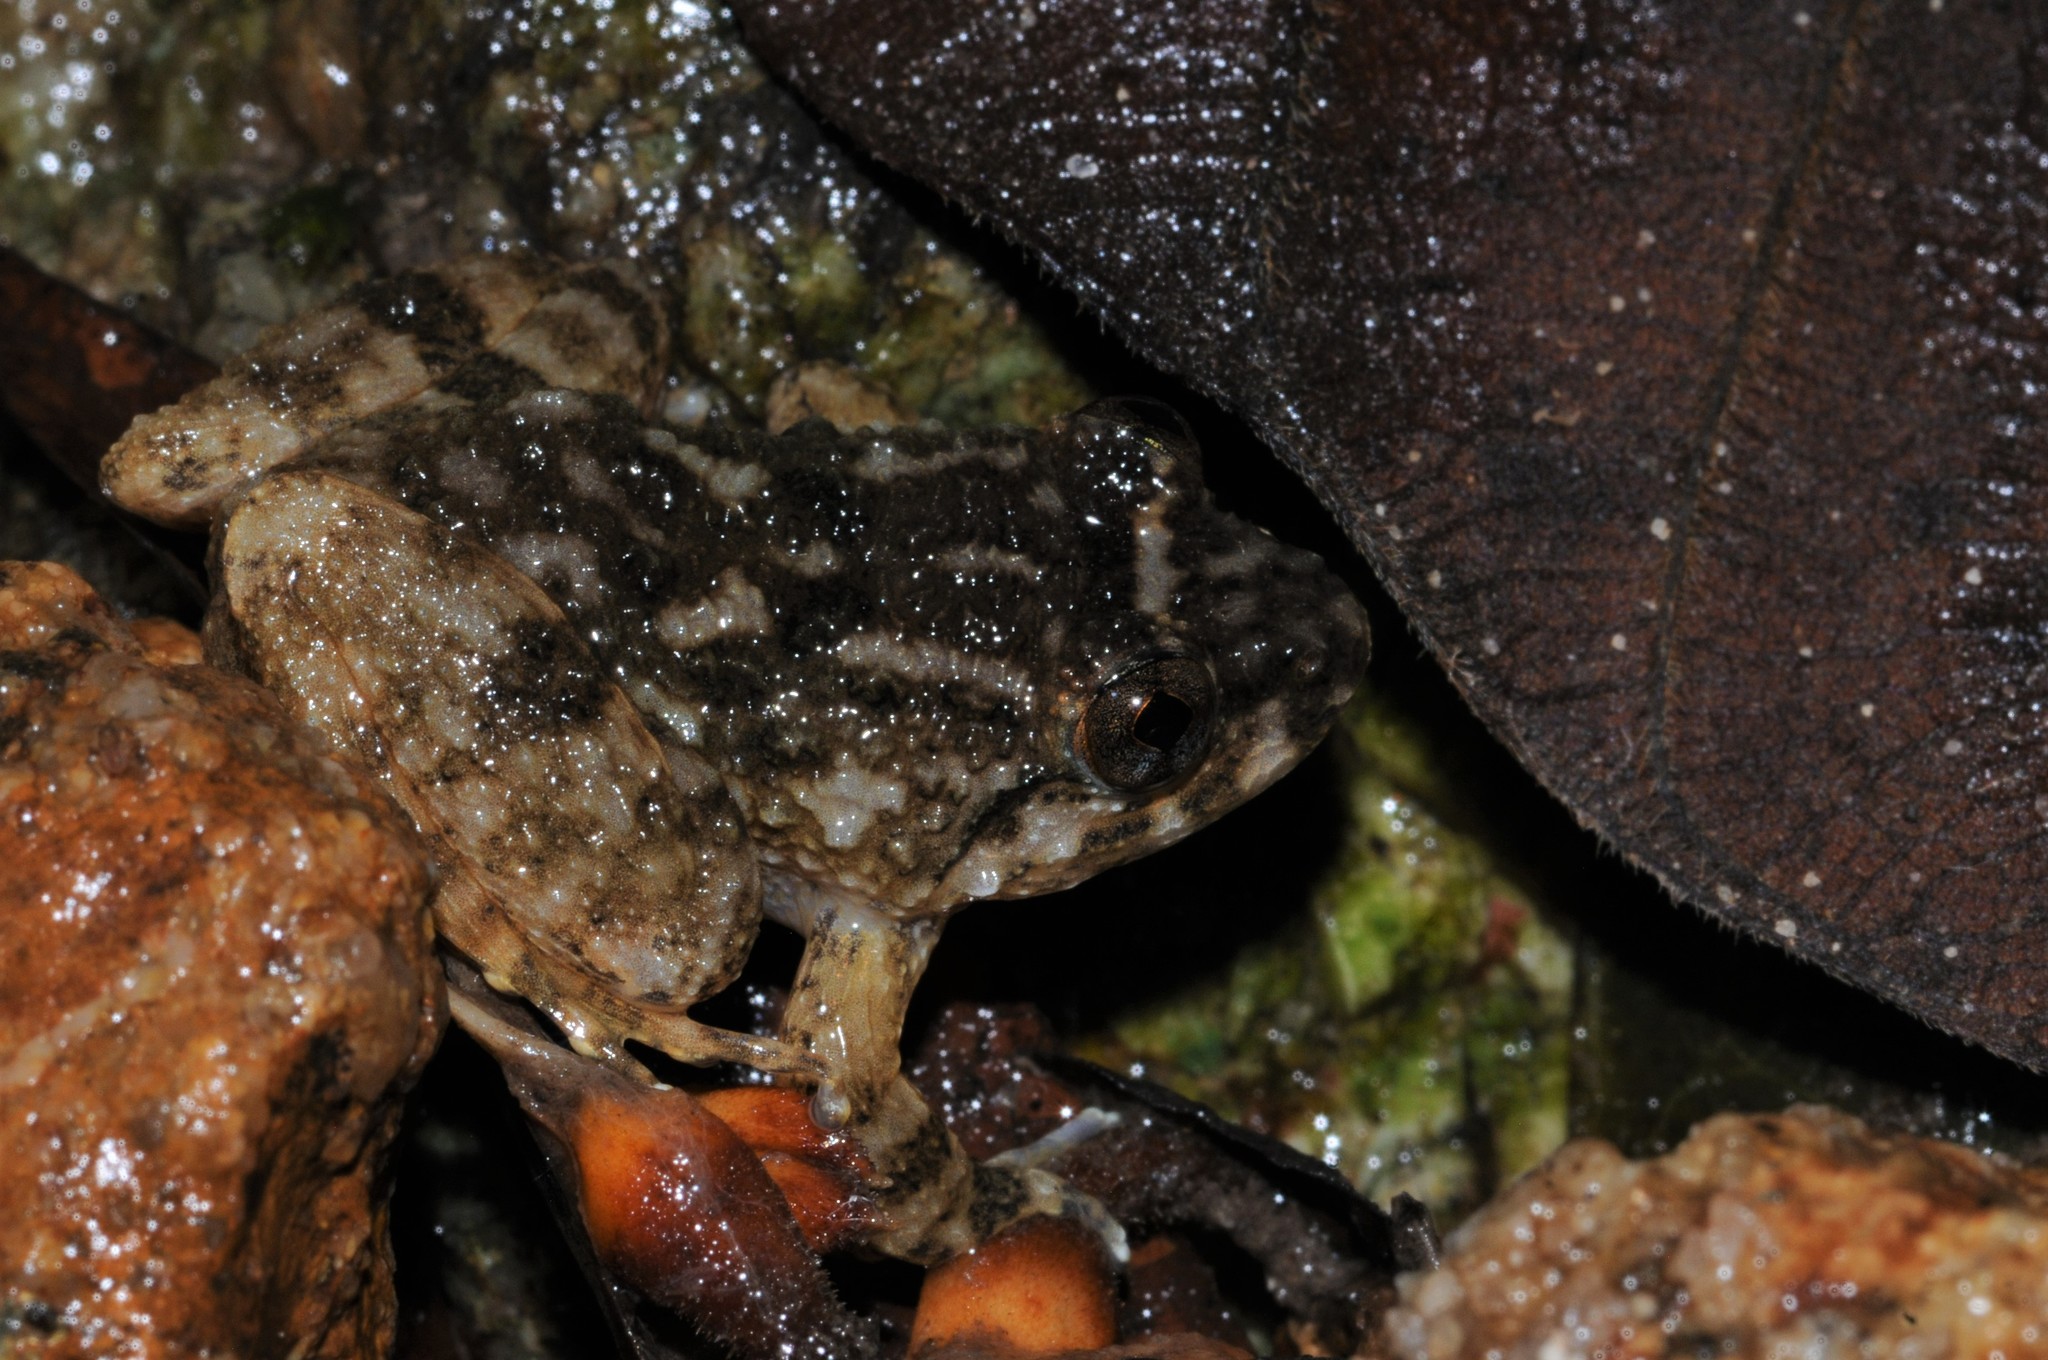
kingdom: Animalia
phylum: Chordata
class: Amphibia
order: Anura
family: Dicroglossidae
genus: Limnonectes
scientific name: Limnonectes deinodon
